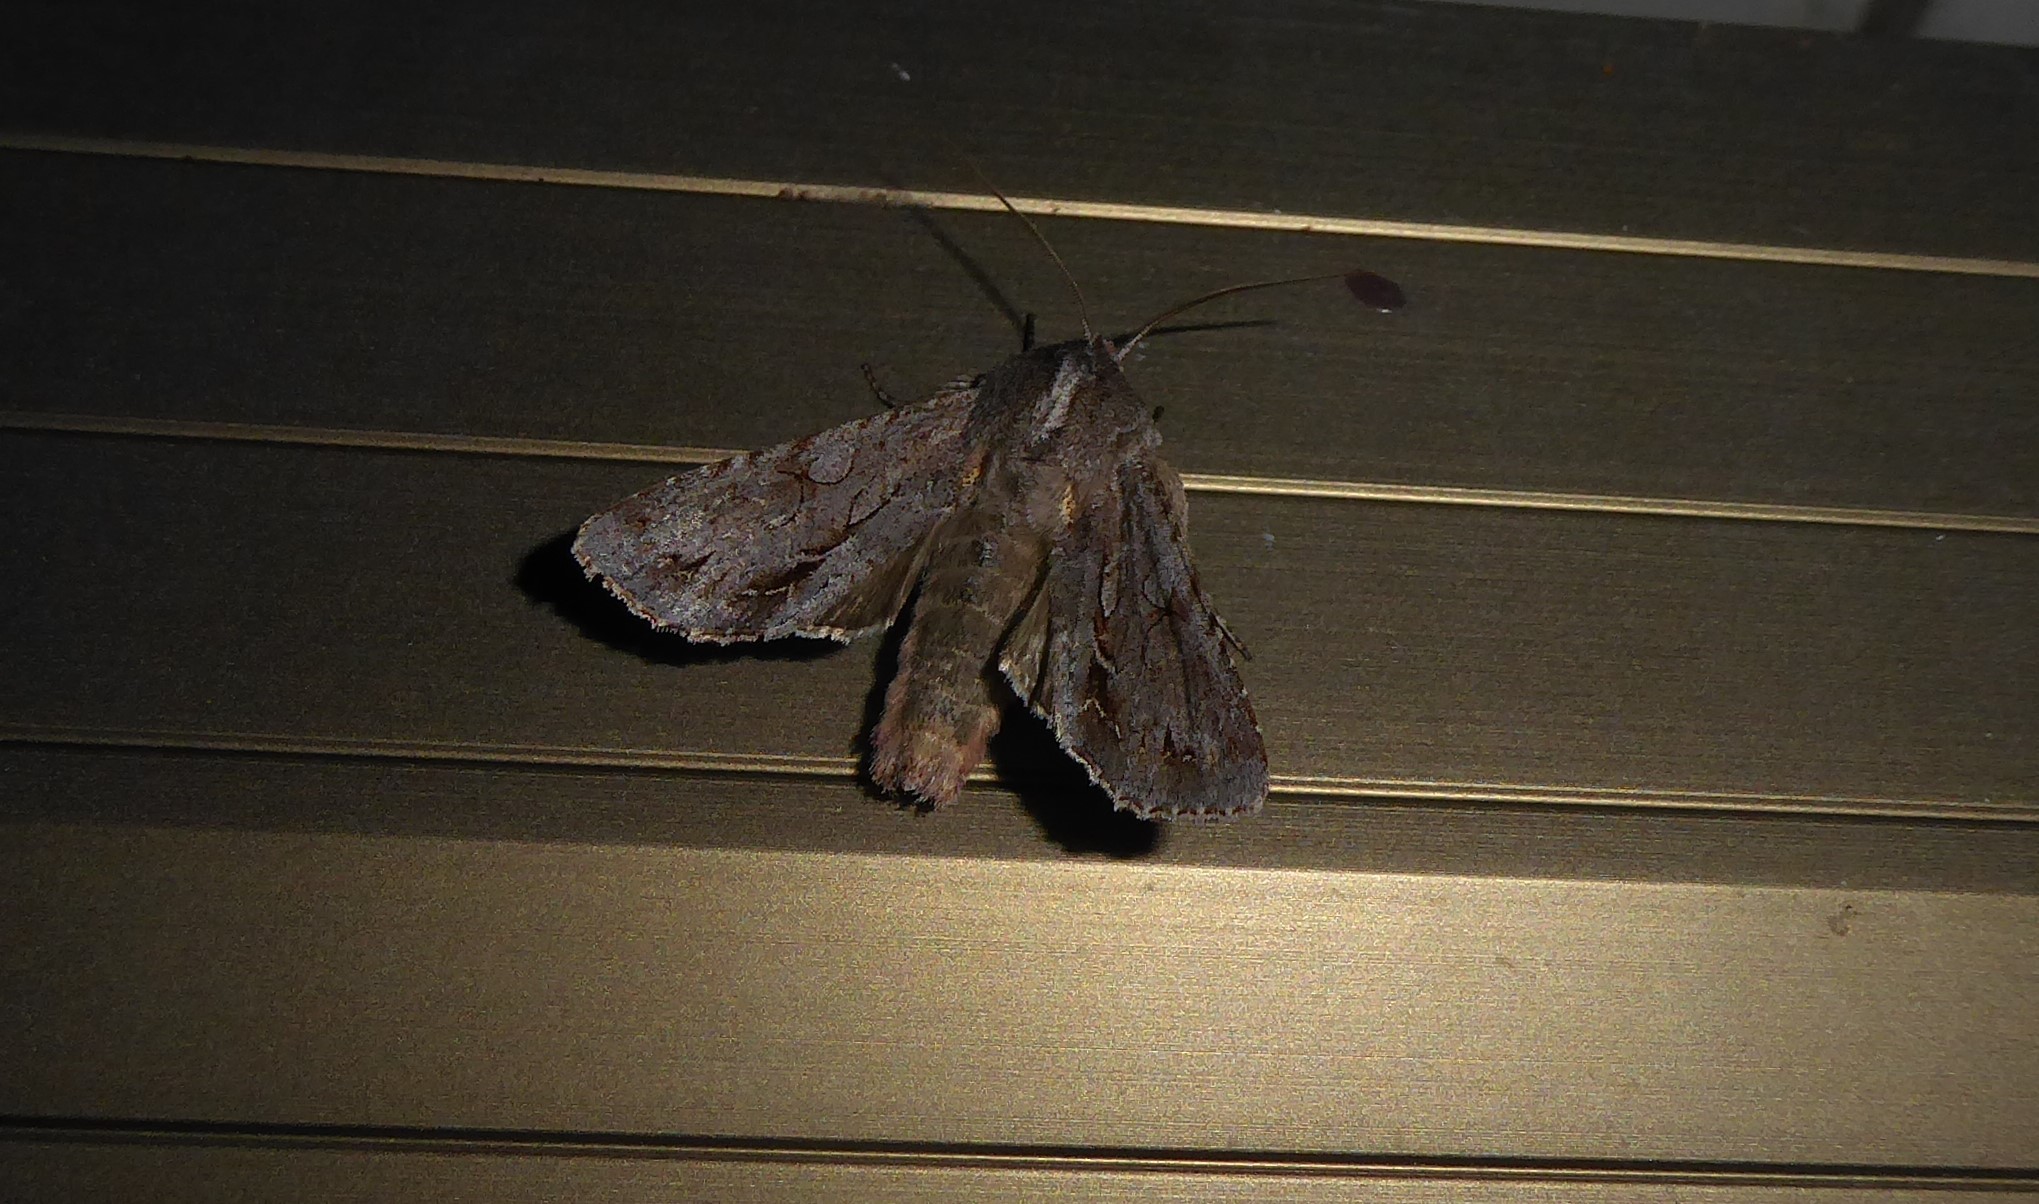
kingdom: Animalia
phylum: Arthropoda
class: Insecta
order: Lepidoptera
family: Noctuidae
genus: Ichneutica
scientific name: Ichneutica
